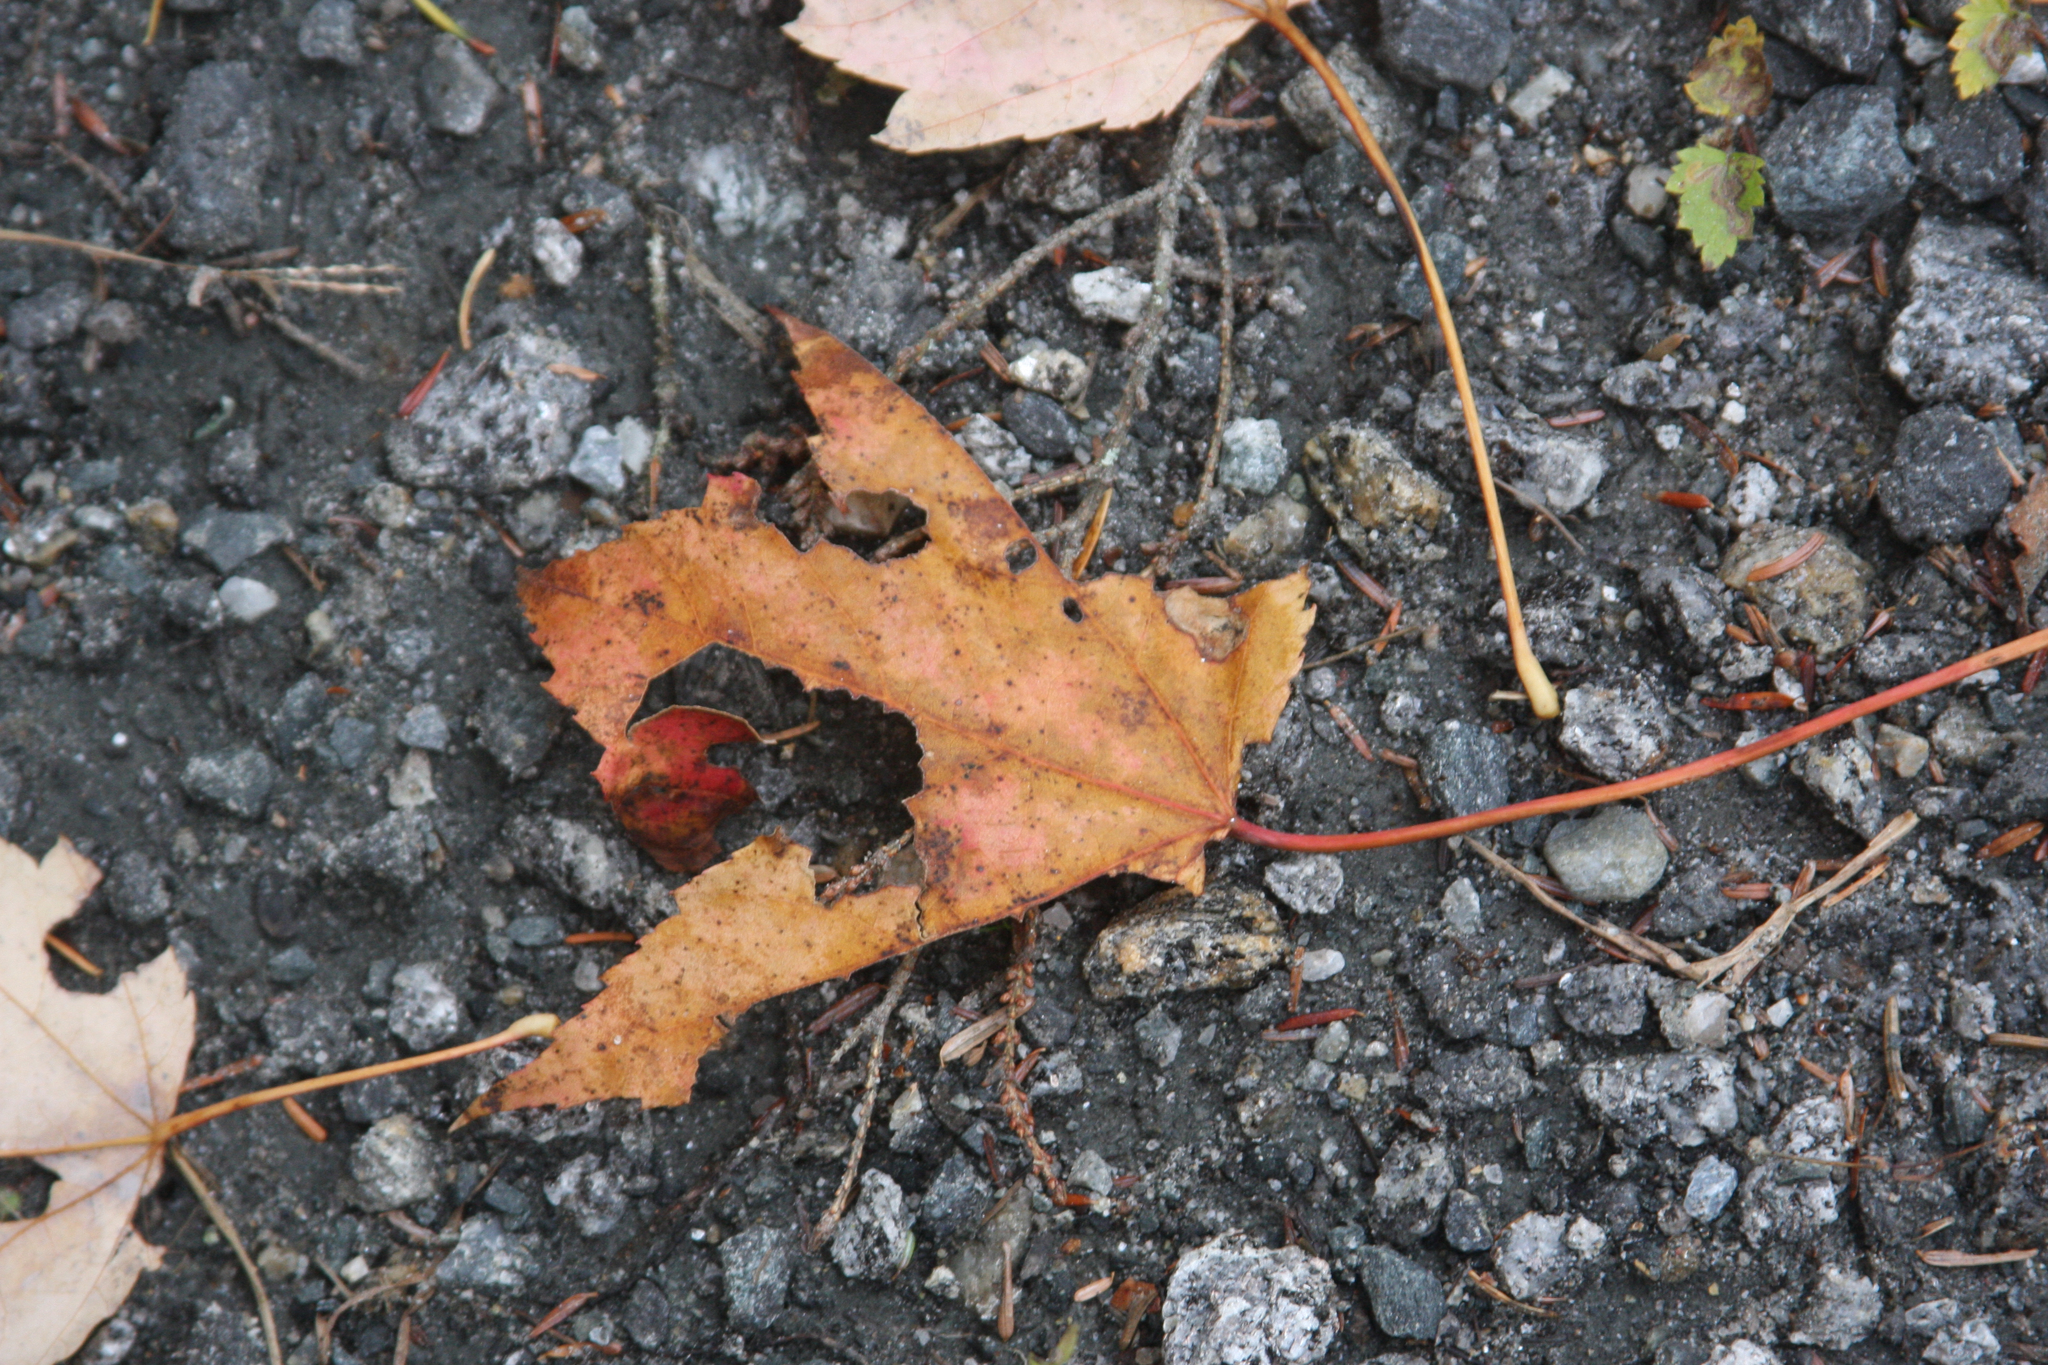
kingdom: Plantae
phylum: Tracheophyta
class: Magnoliopsida
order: Sapindales
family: Sapindaceae
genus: Acer
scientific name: Acer rubrum
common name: Red maple
